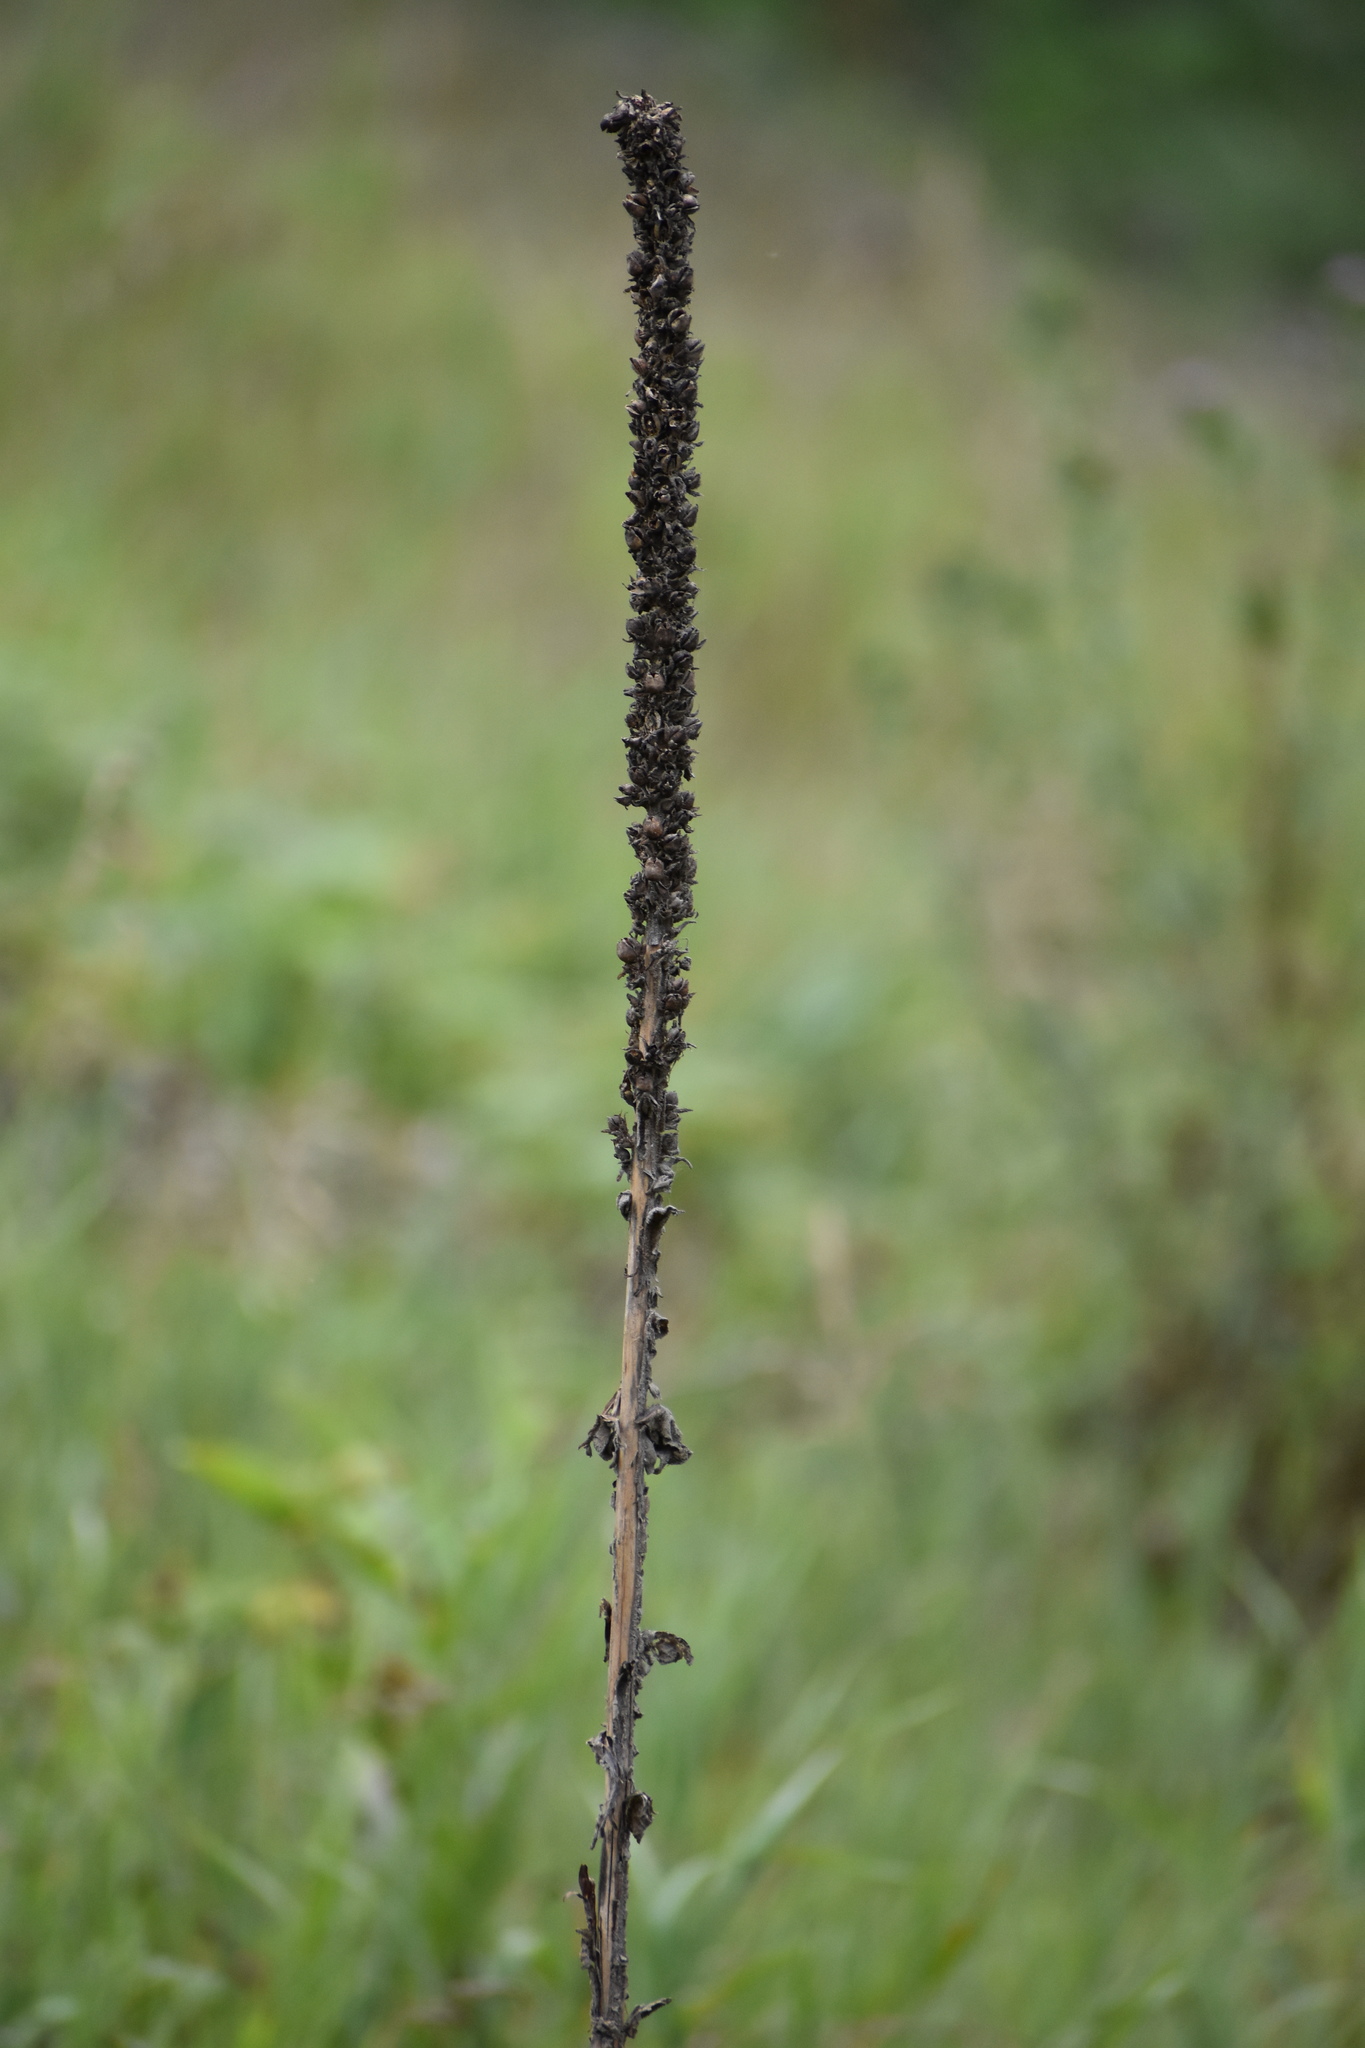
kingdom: Plantae
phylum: Tracheophyta
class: Magnoliopsida
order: Lamiales
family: Scrophulariaceae
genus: Verbascum
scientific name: Verbascum thapsus
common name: Common mullein
